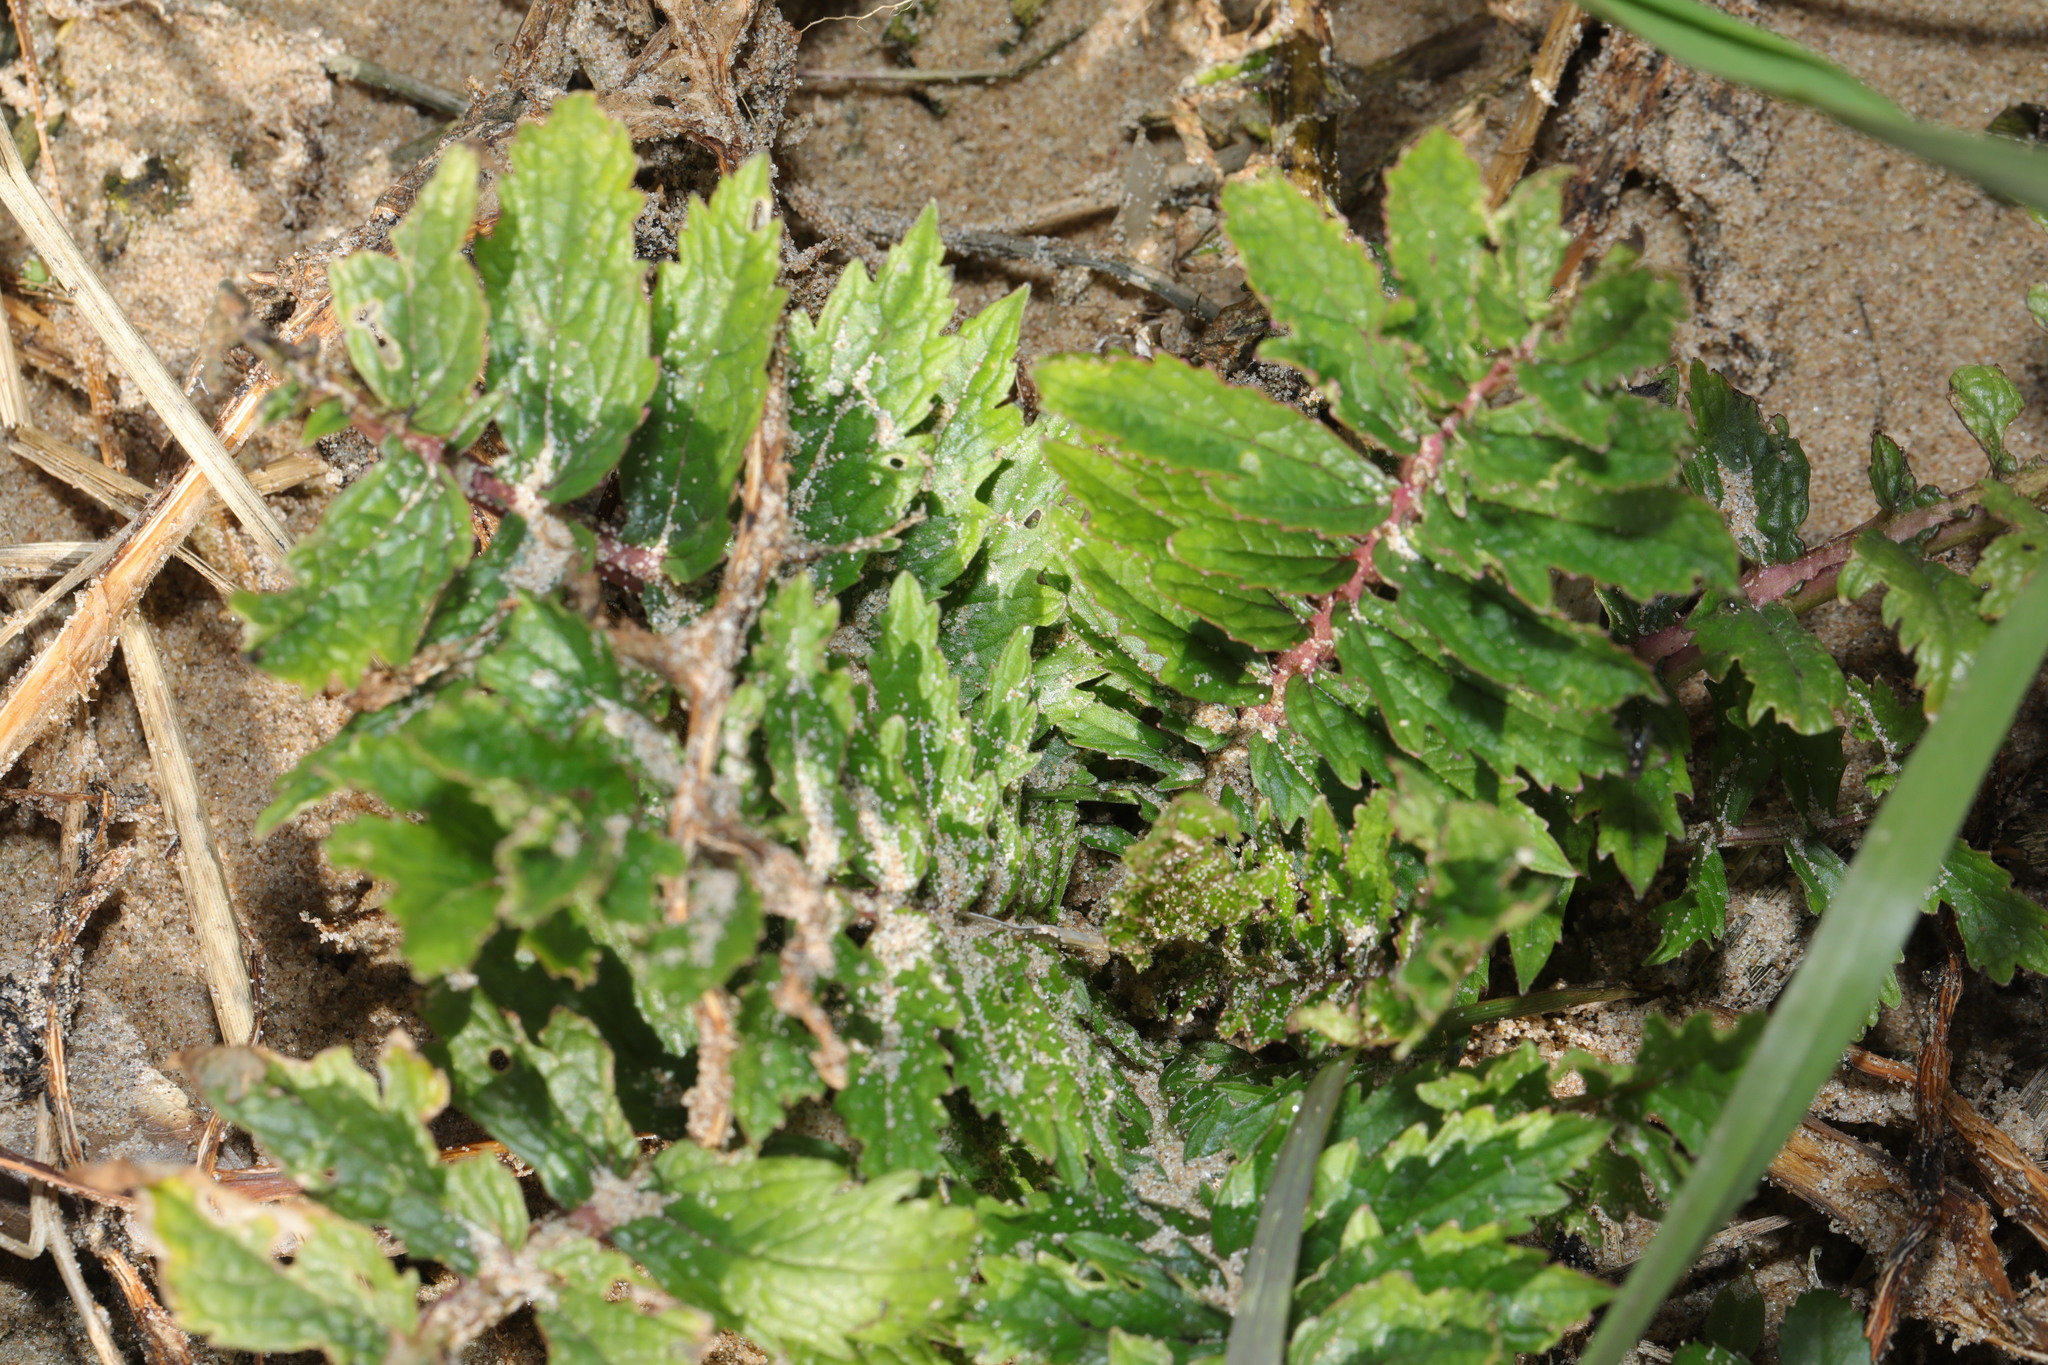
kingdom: Plantae
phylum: Tracheophyta
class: Magnoliopsida
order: Rosales
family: Rosaceae
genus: Argentina
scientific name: Argentina anserina
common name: Common silverweed
